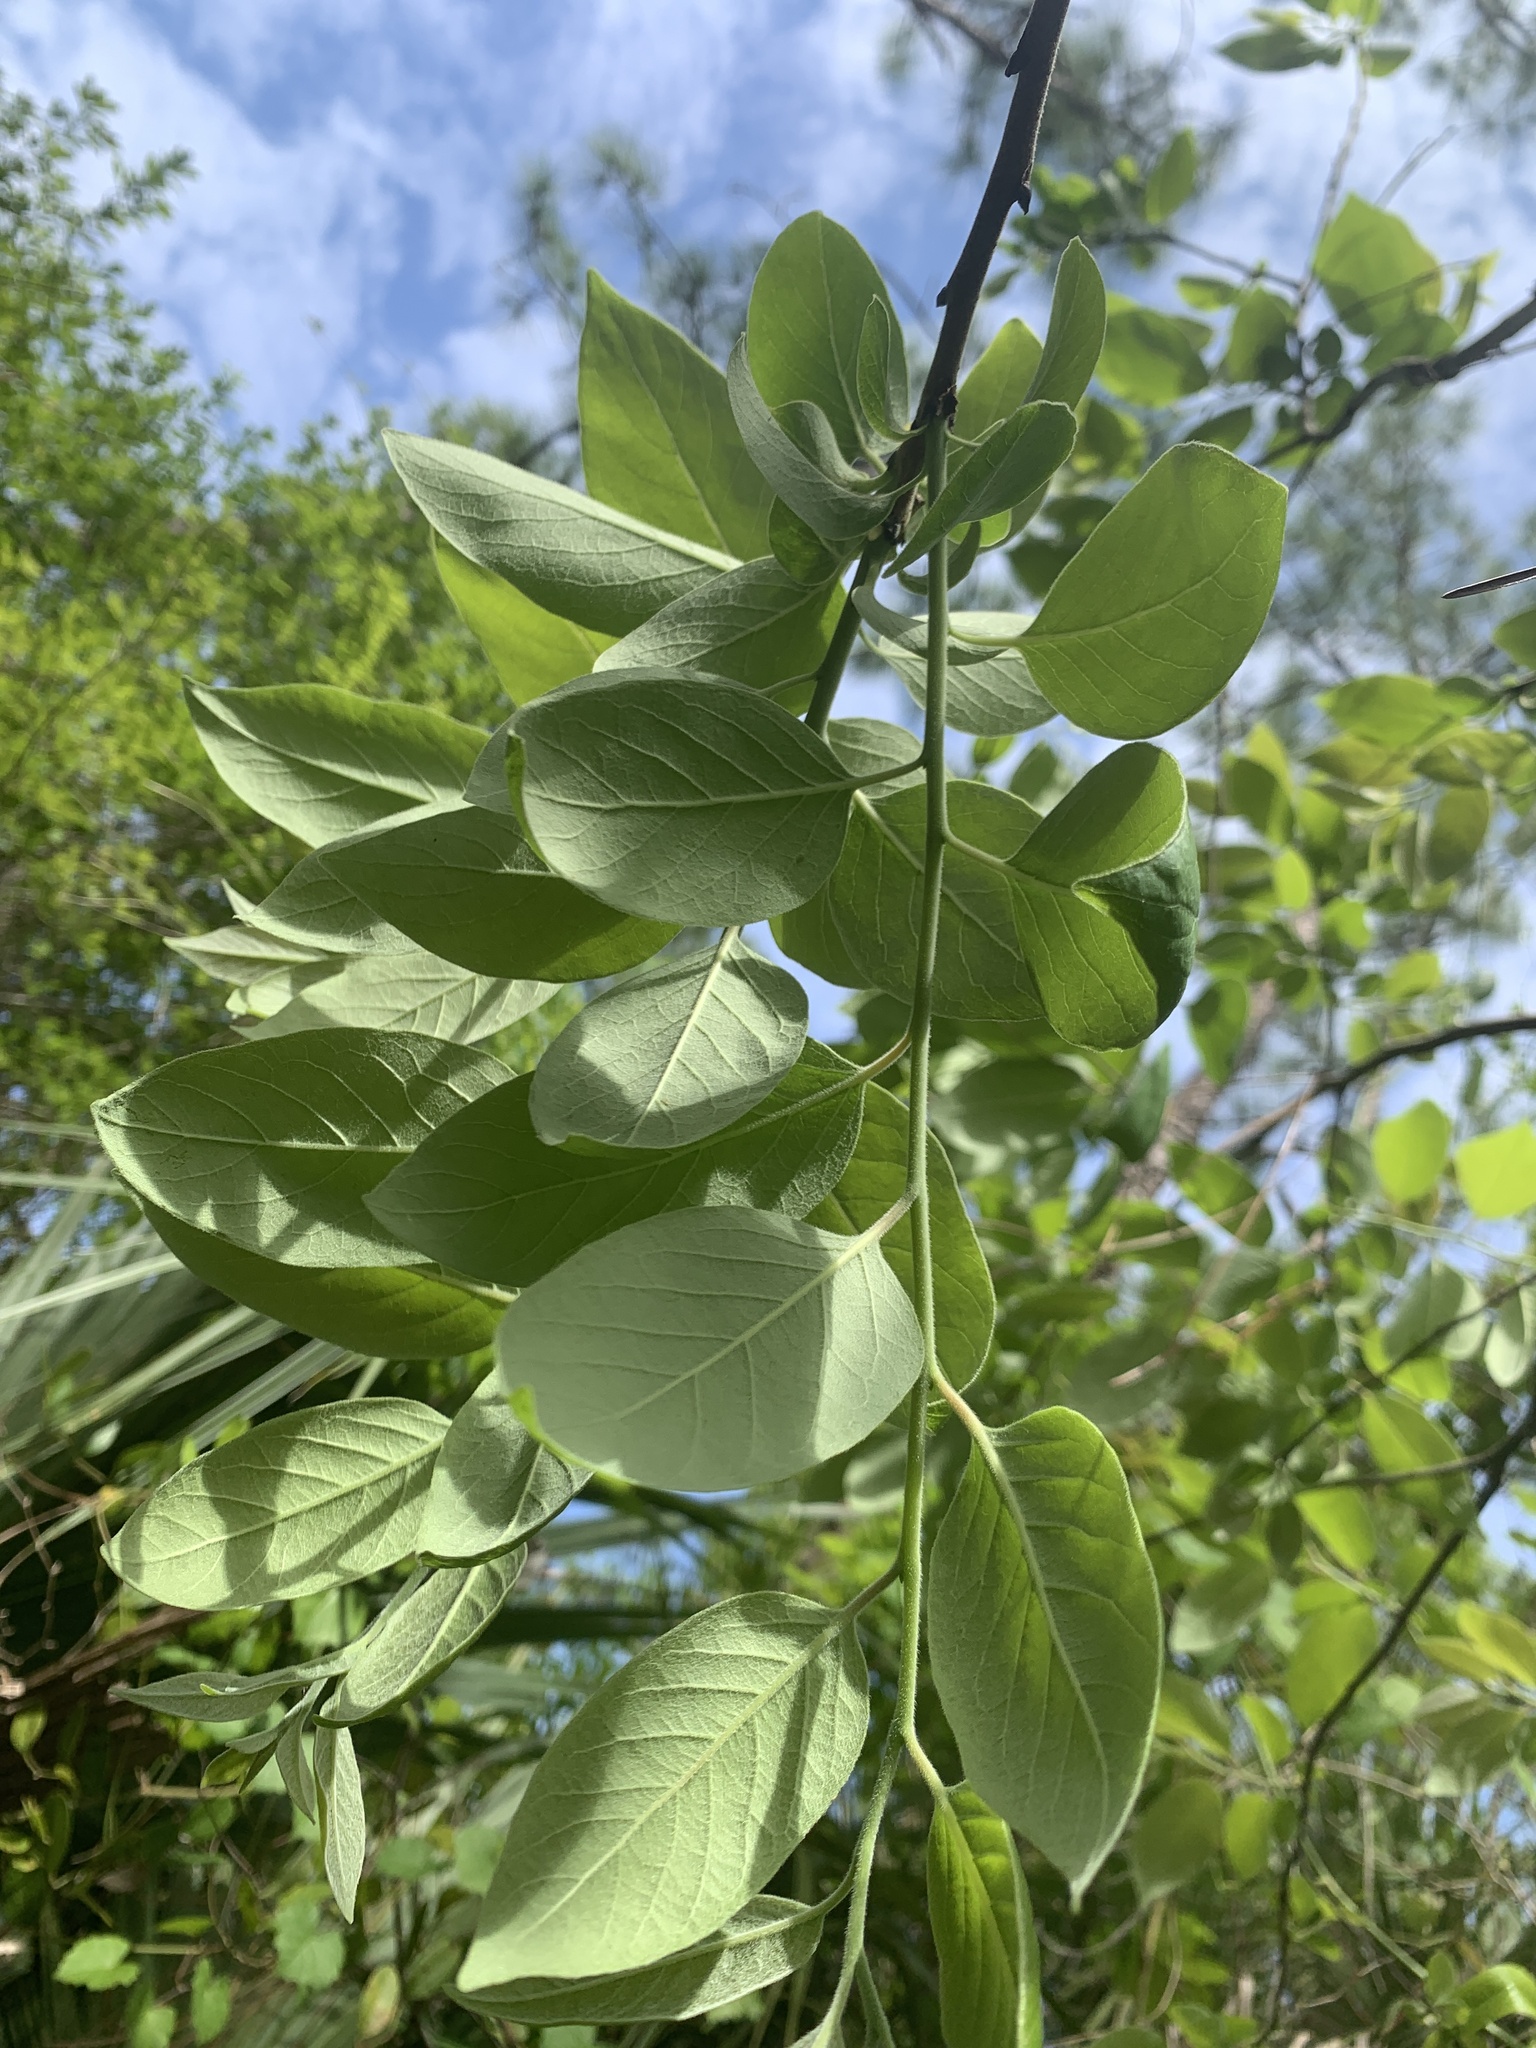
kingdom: Plantae
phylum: Tracheophyta
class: Magnoliopsida
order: Ericales
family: Ebenaceae
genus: Diospyros
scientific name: Diospyros virginiana
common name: Persimmon
